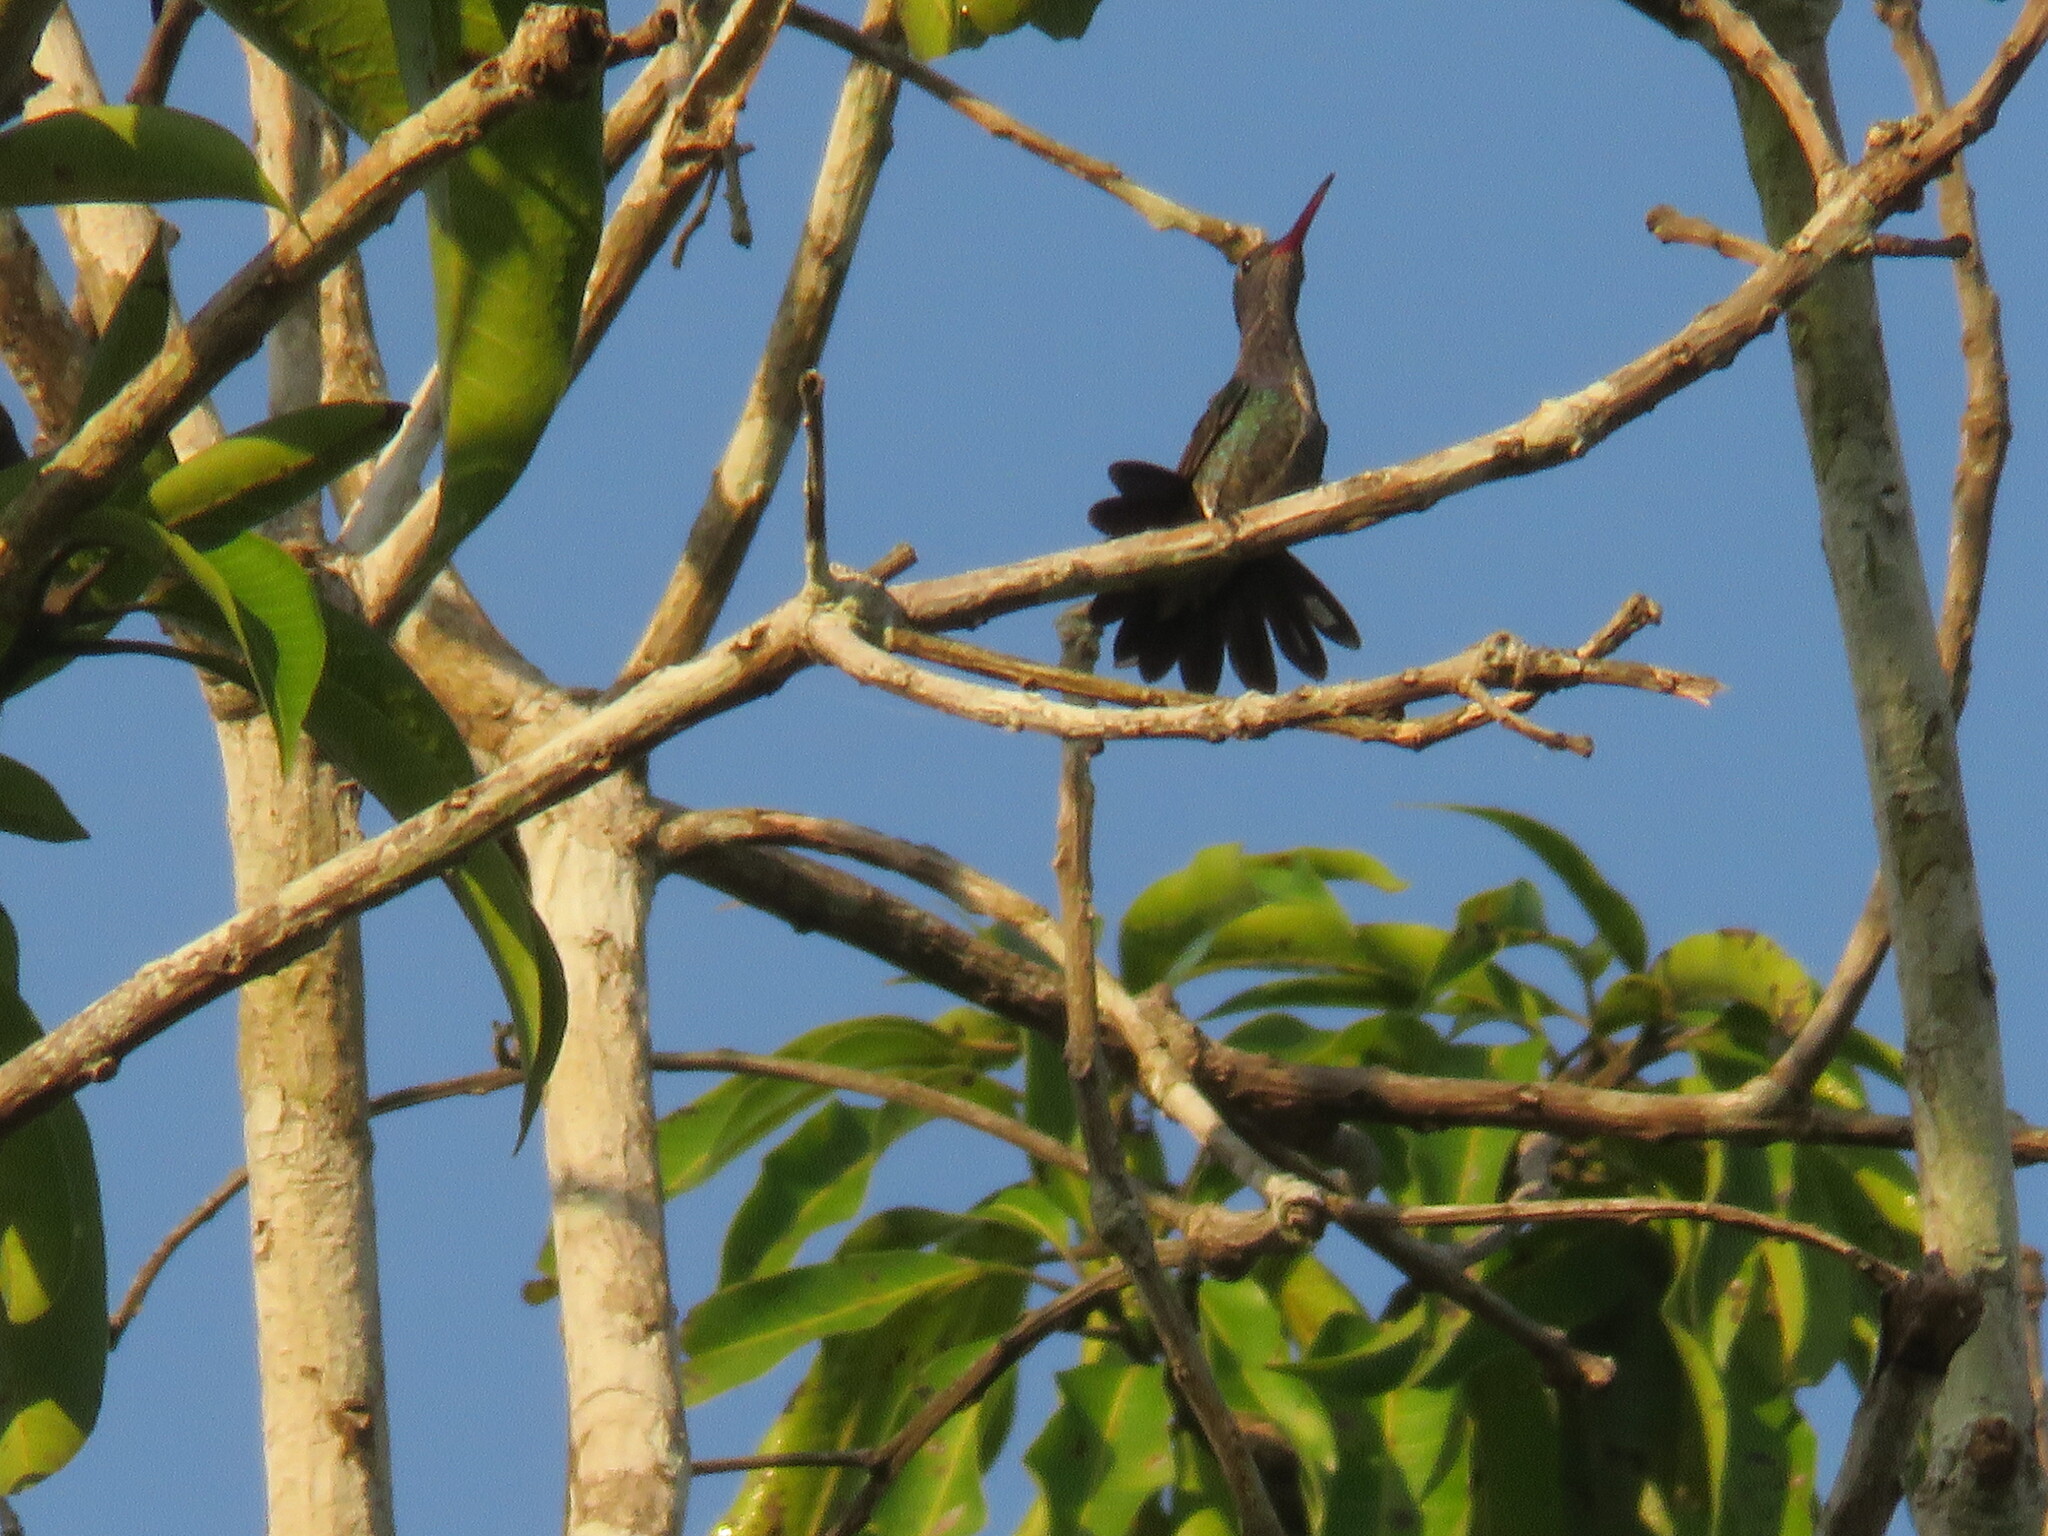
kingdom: Animalia
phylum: Chordata
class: Aves
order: Apodiformes
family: Trochilidae
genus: Chionomesa
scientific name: Chionomesa lactea
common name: Sapphire-spangled emerald
